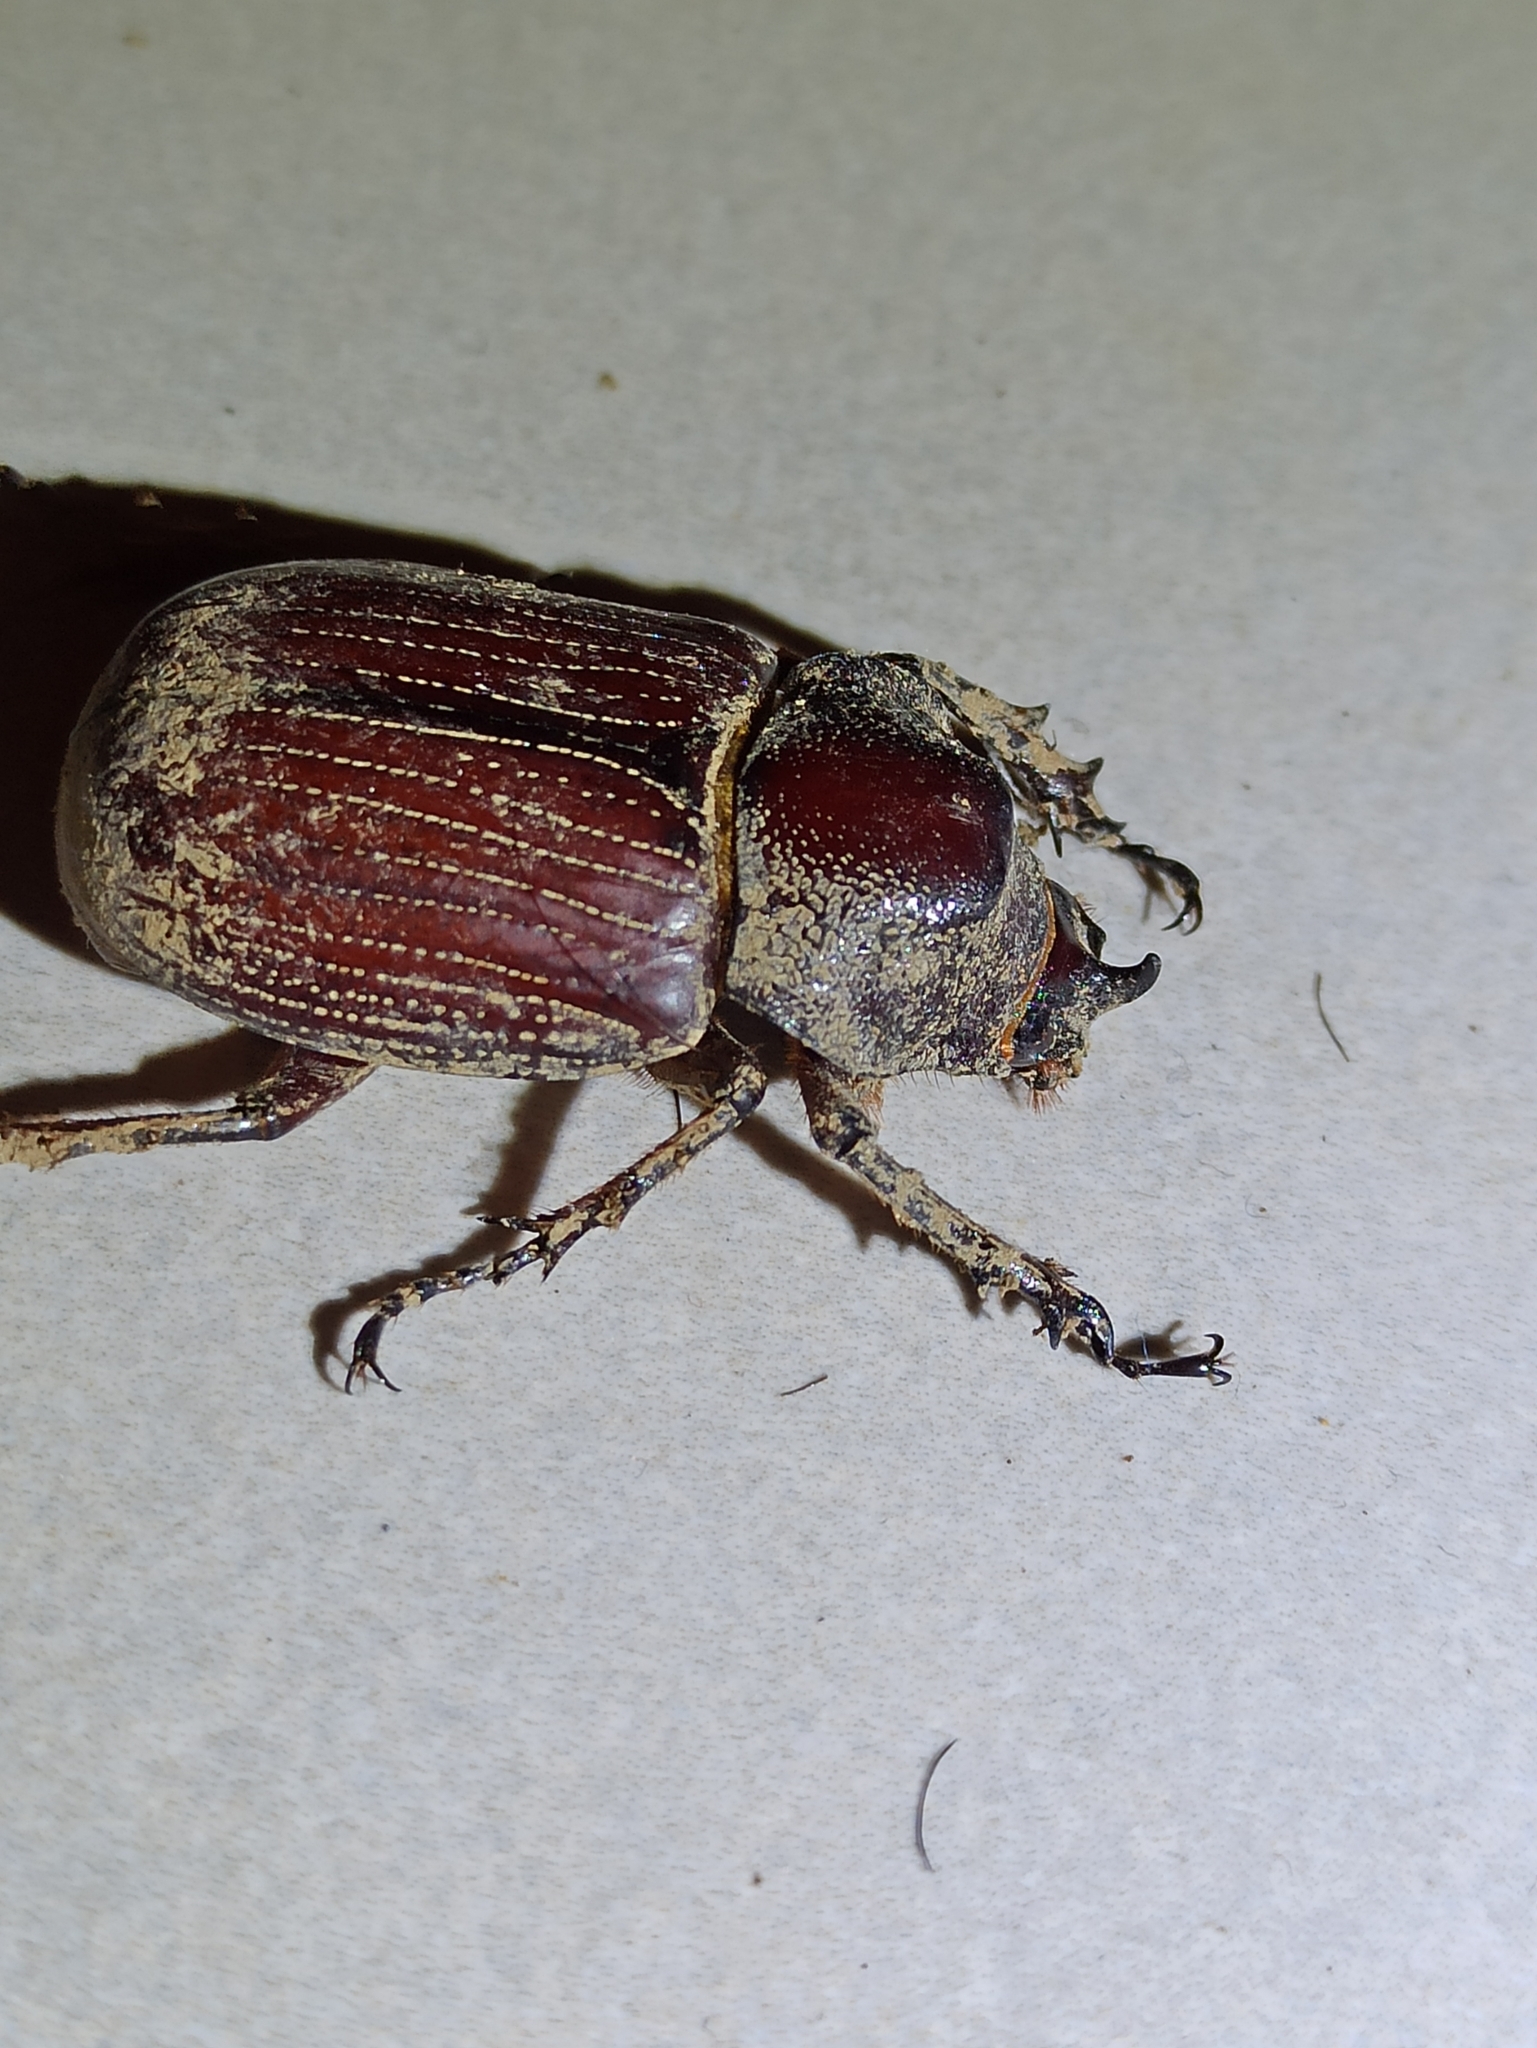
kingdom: Animalia
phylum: Arthropoda
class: Insecta
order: Coleoptera
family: Scarabaeidae
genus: Coelosis
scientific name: Coelosis biloba
